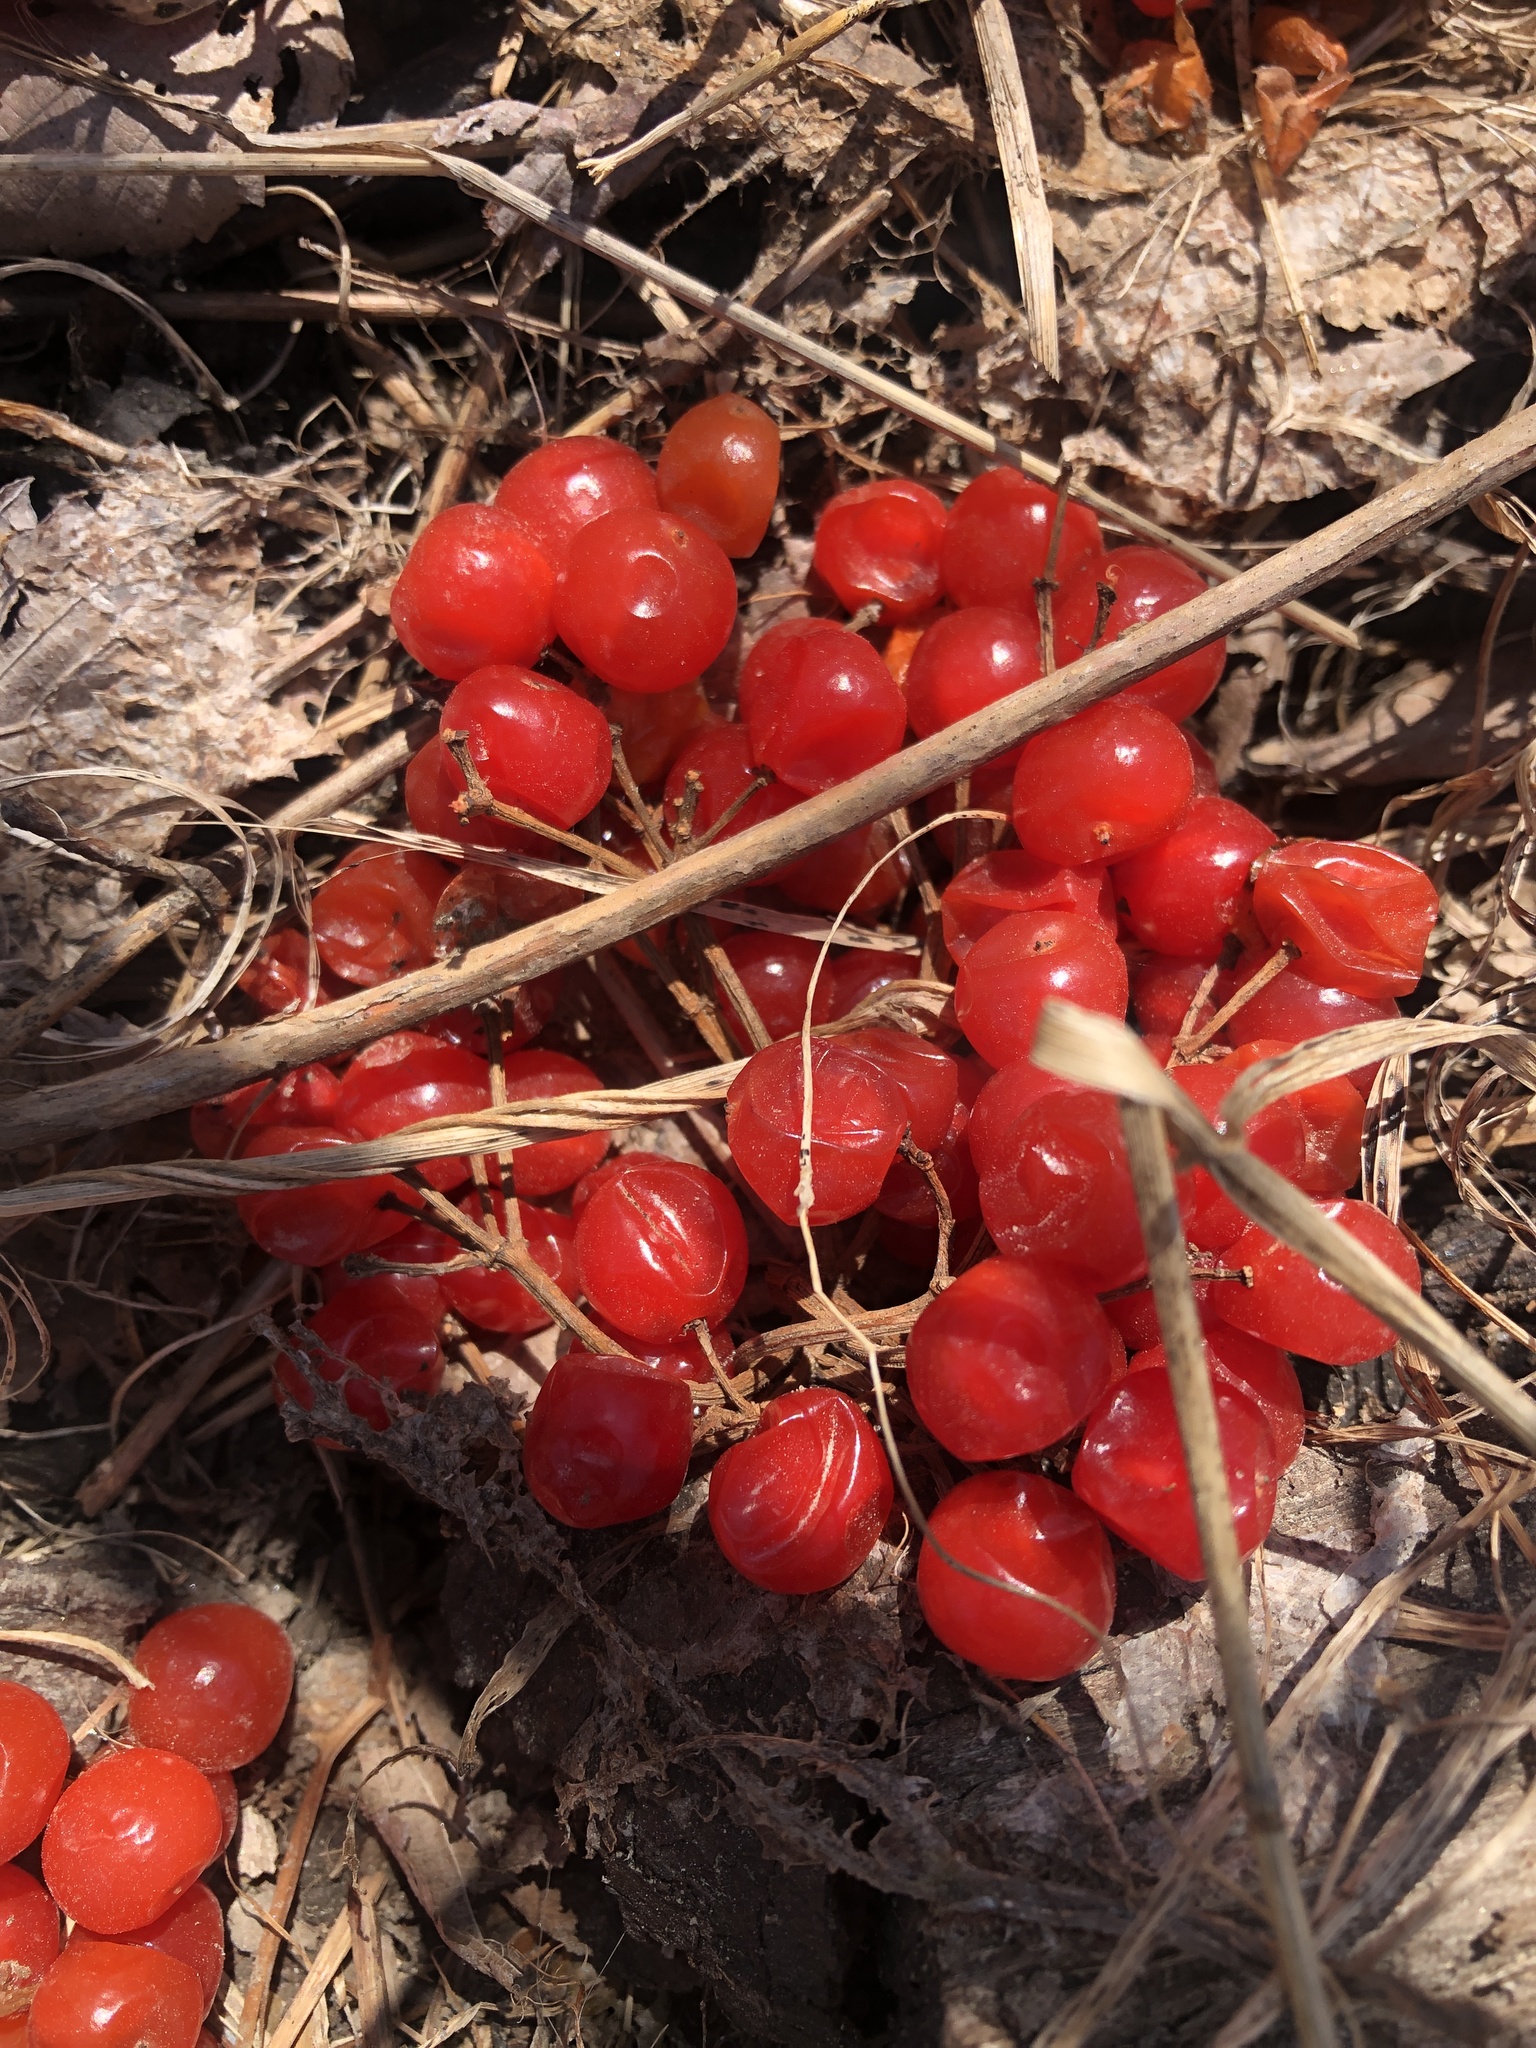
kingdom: Plantae
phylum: Tracheophyta
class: Magnoliopsida
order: Dipsacales
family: Viburnaceae
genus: Viburnum
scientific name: Viburnum opulus
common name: Guelder-rose
